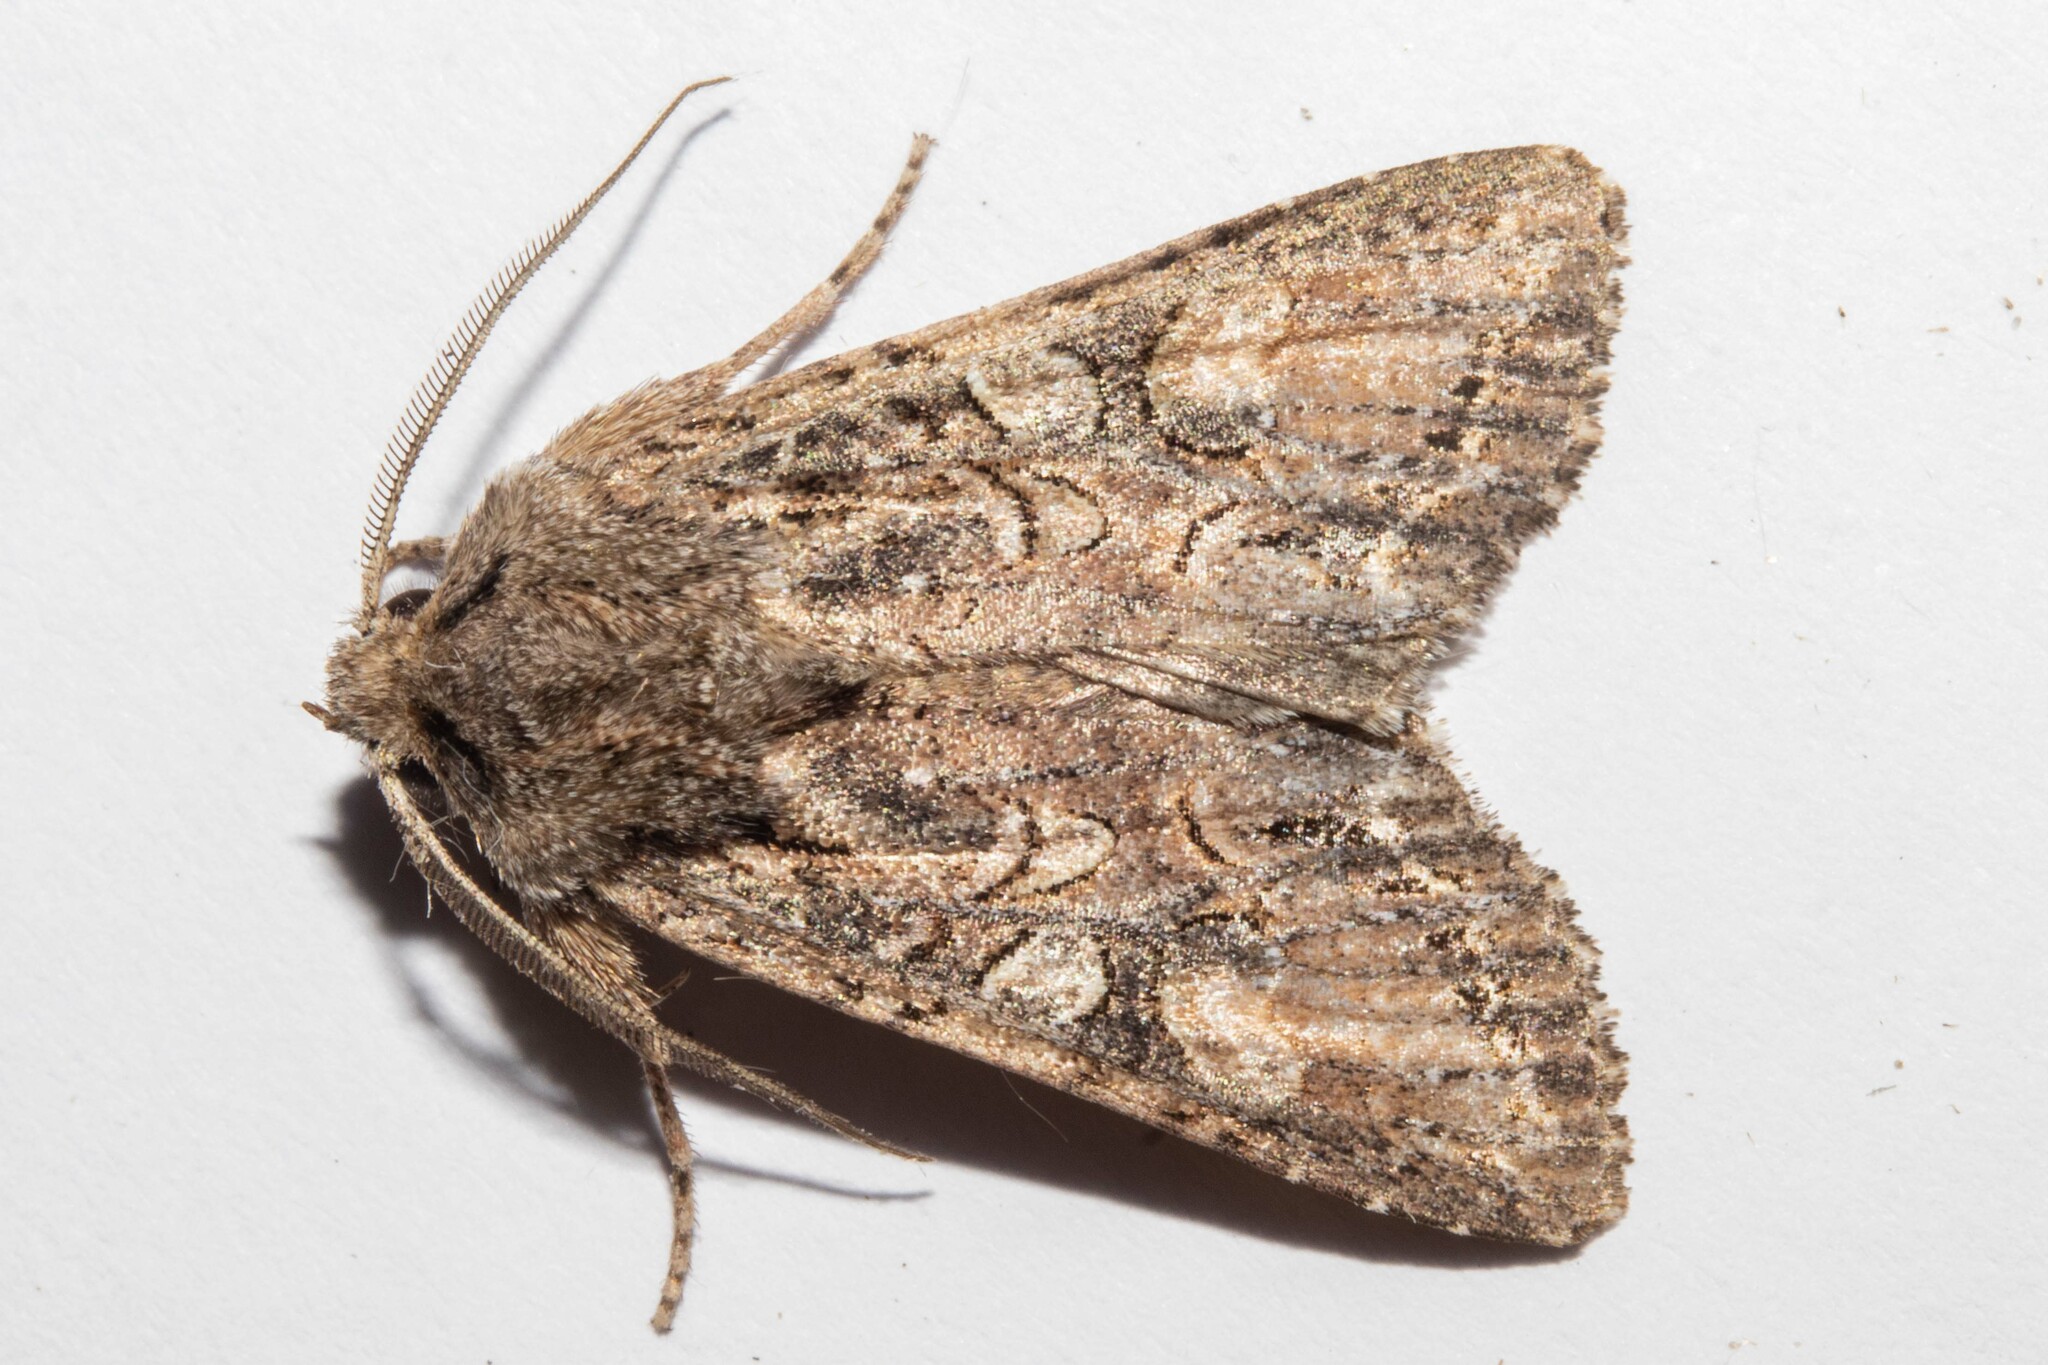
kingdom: Animalia
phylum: Arthropoda
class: Insecta
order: Lepidoptera
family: Noctuidae
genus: Ichneutica
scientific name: Ichneutica mutans
